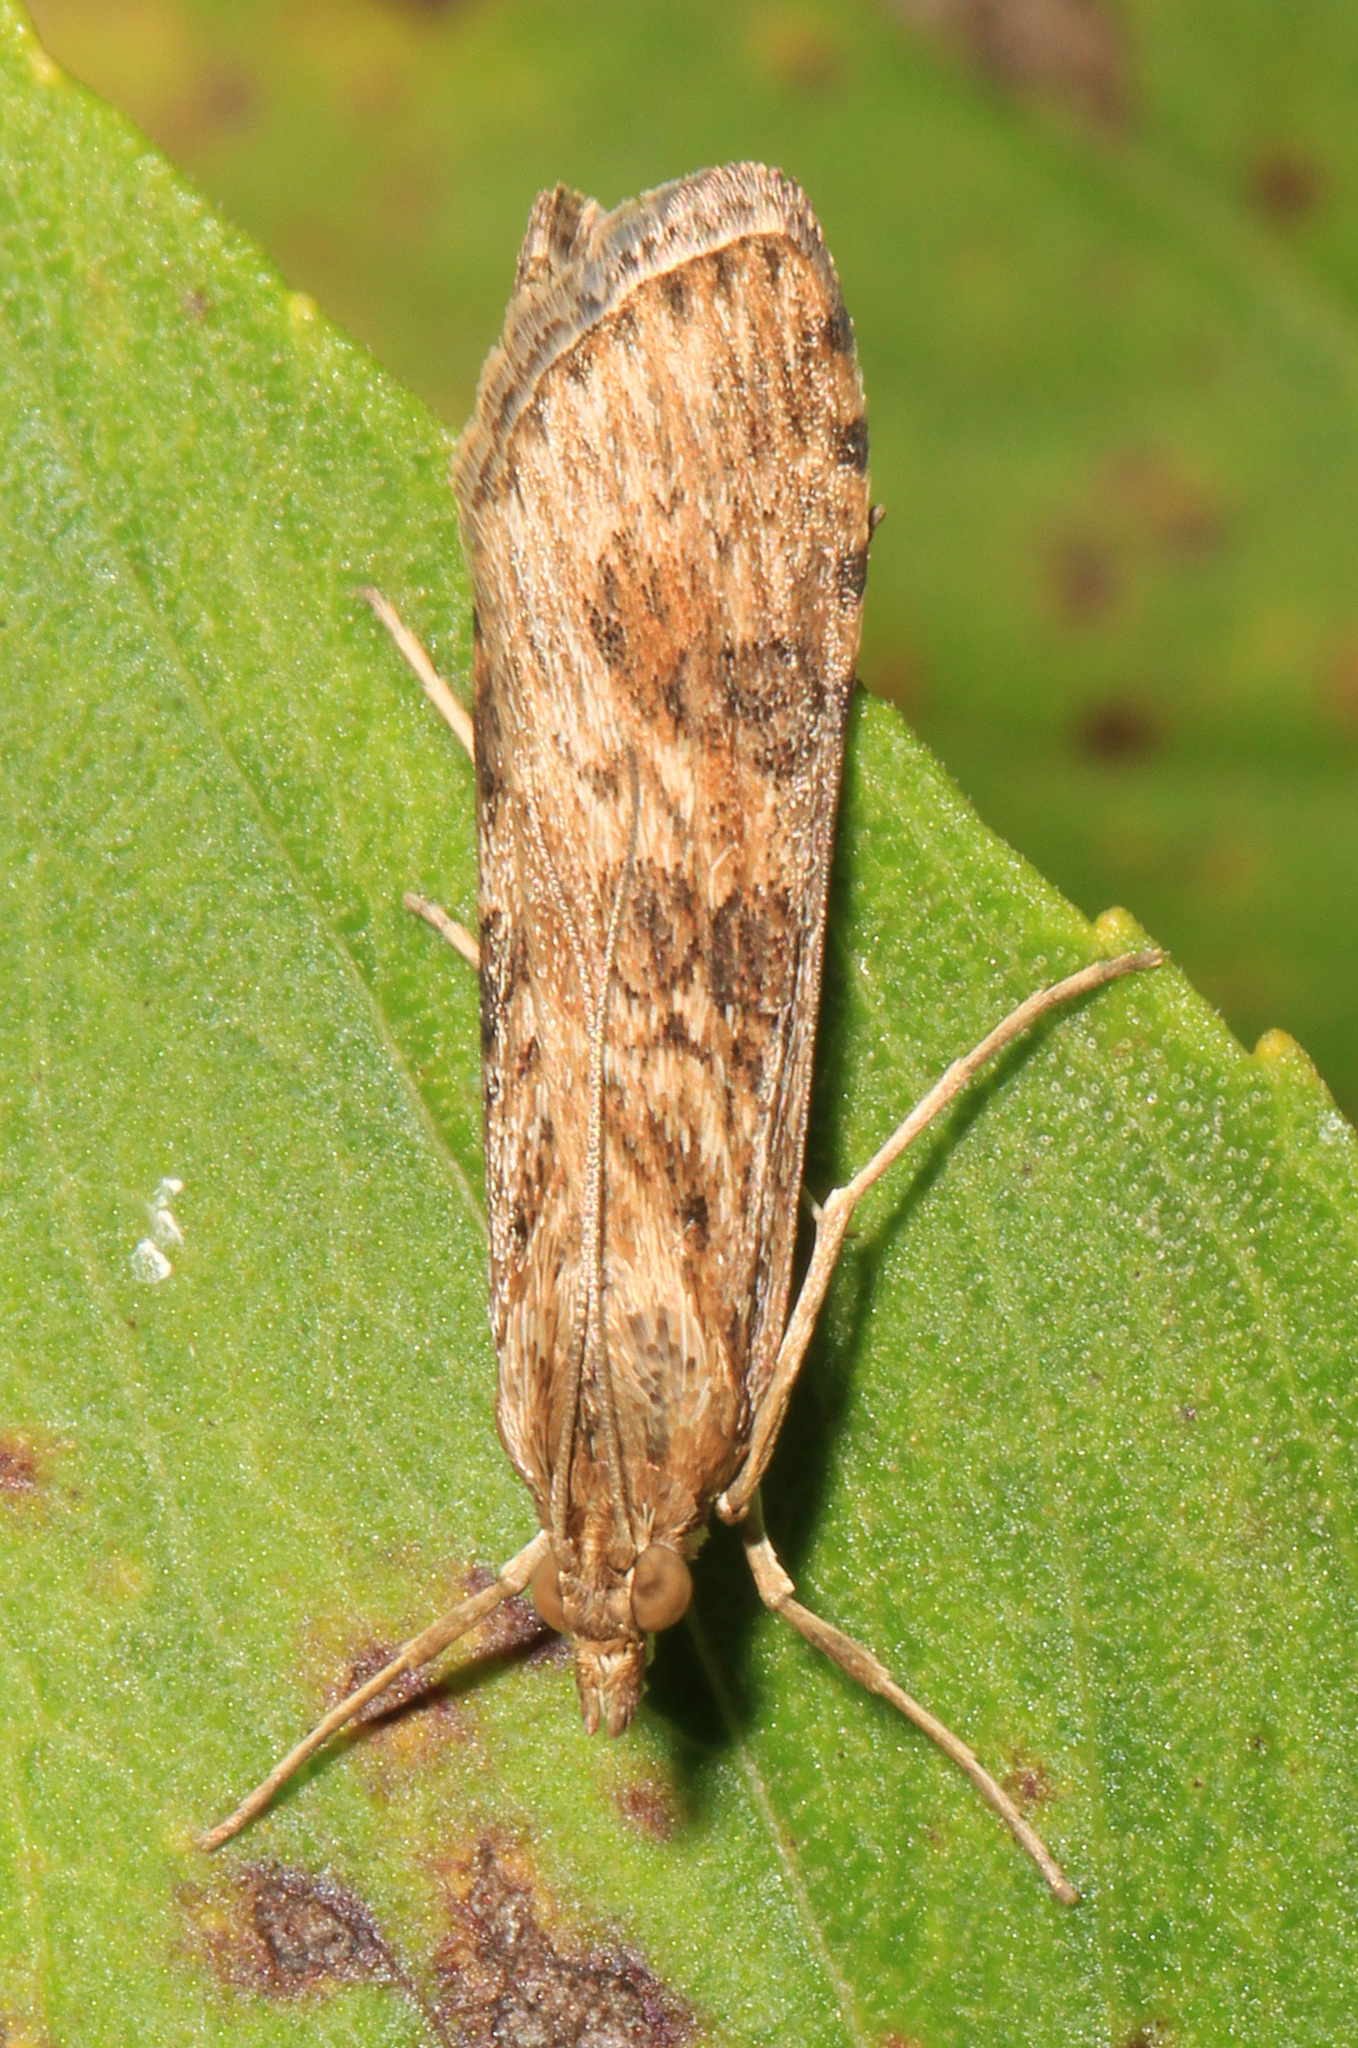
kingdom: Animalia
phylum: Arthropoda
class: Insecta
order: Lepidoptera
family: Crambidae
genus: Nomophila
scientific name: Nomophila nearctica
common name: American rush veneer
